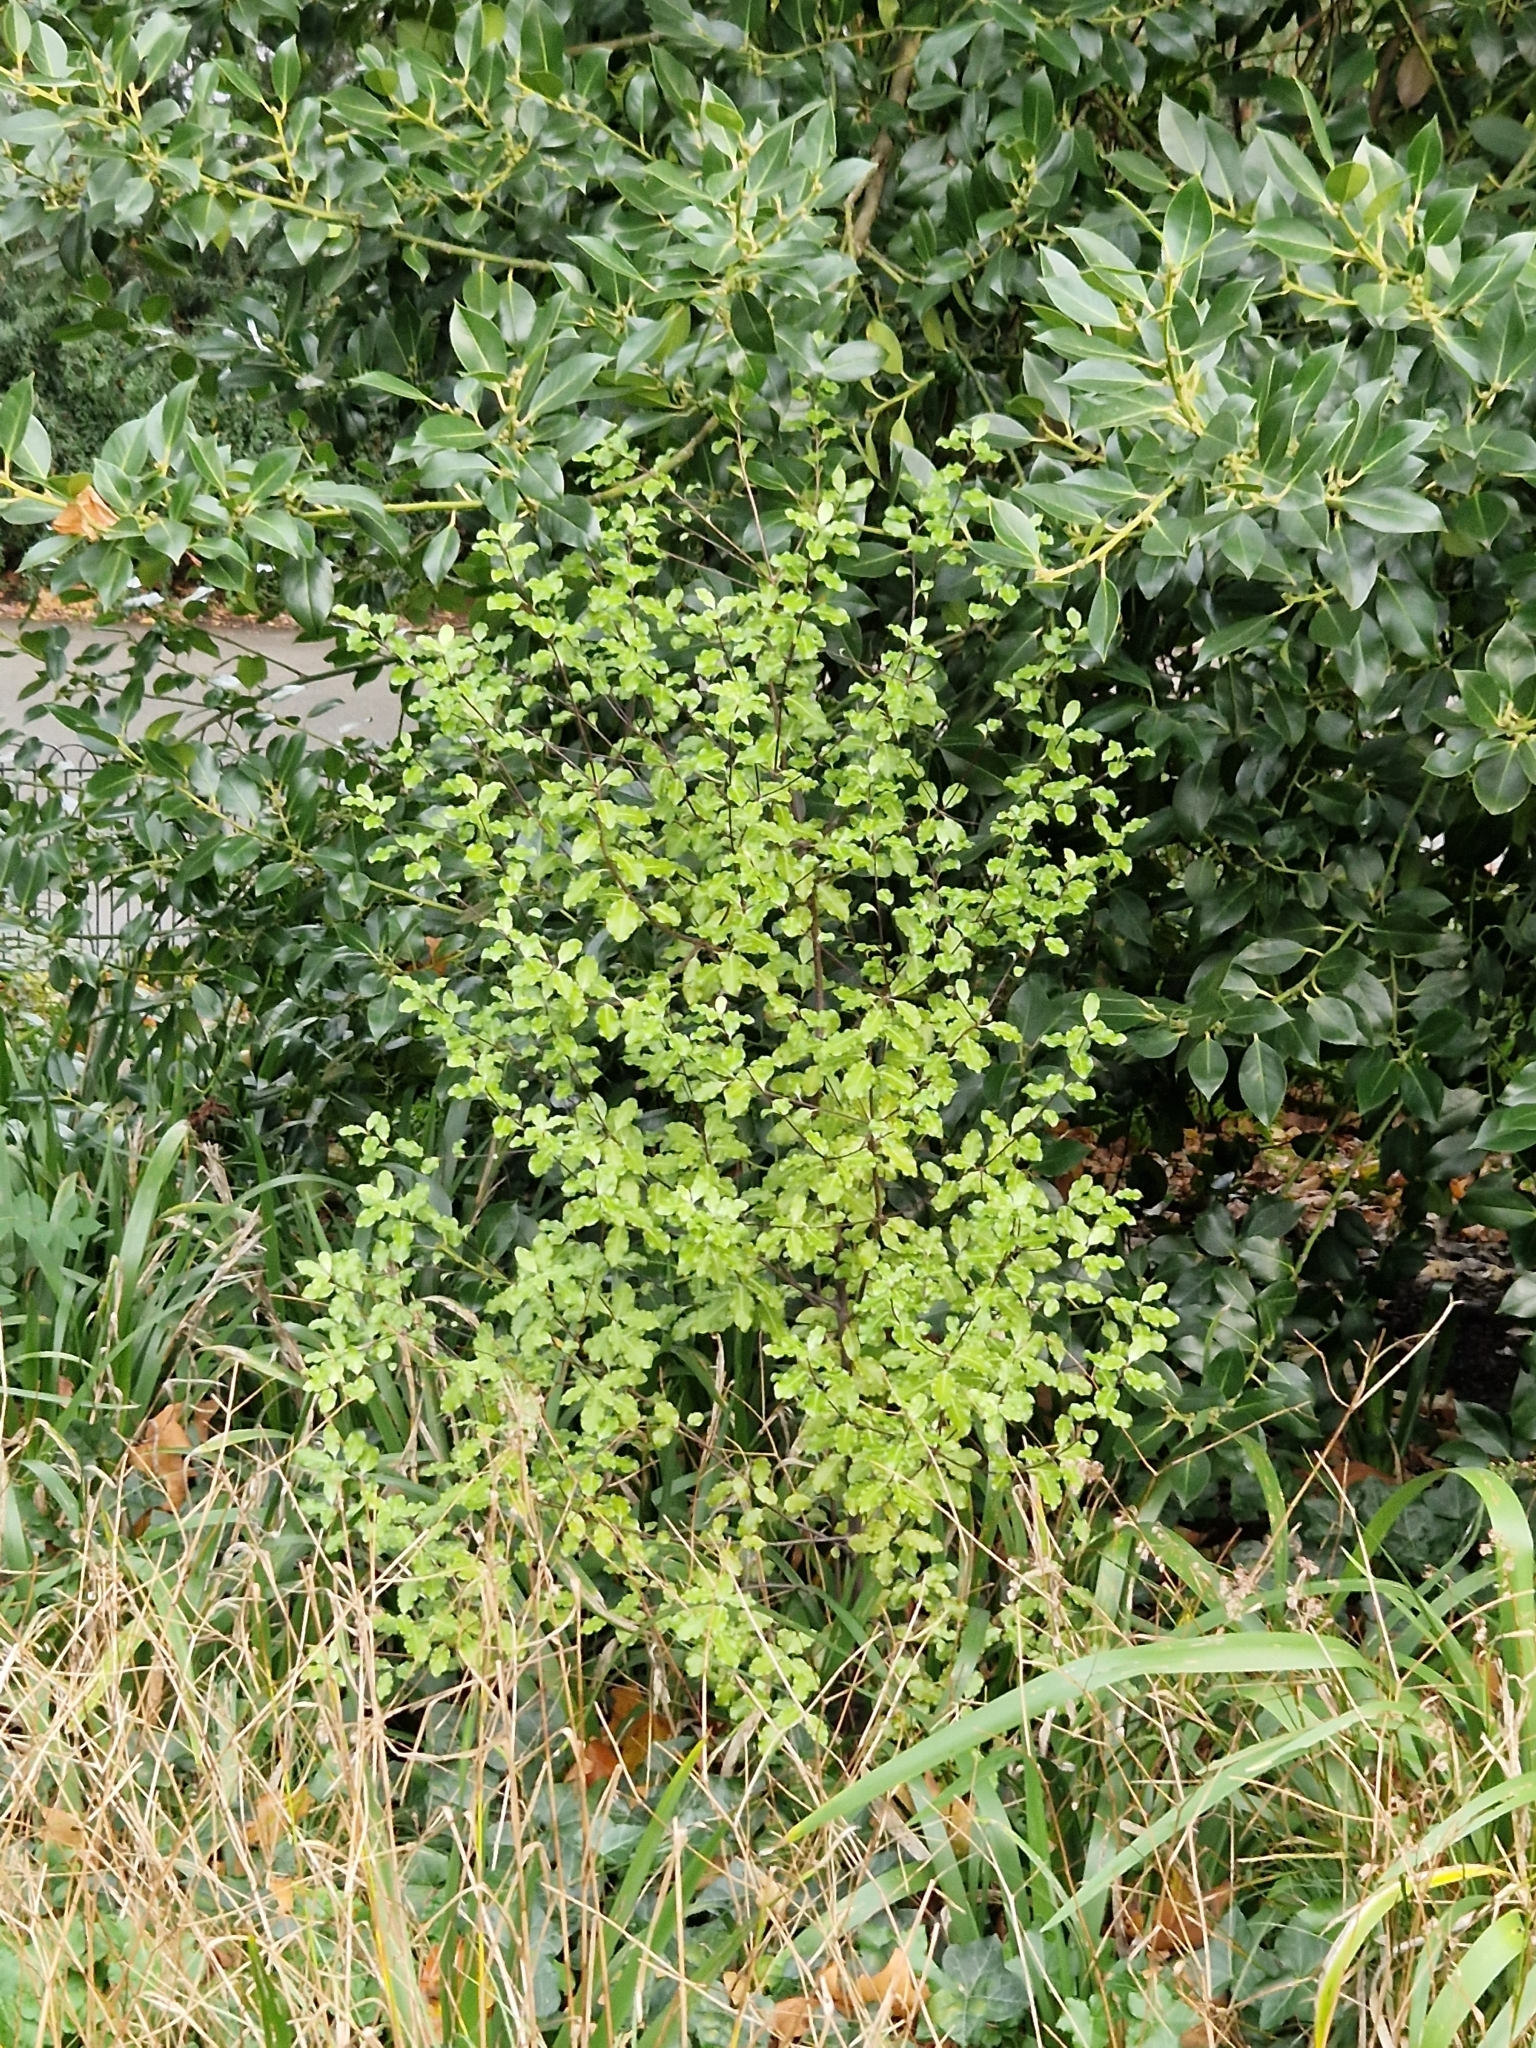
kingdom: Plantae
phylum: Tracheophyta
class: Magnoliopsida
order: Apiales
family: Pittosporaceae
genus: Pittosporum
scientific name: Pittosporum tenuifolium
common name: Kohuhu
